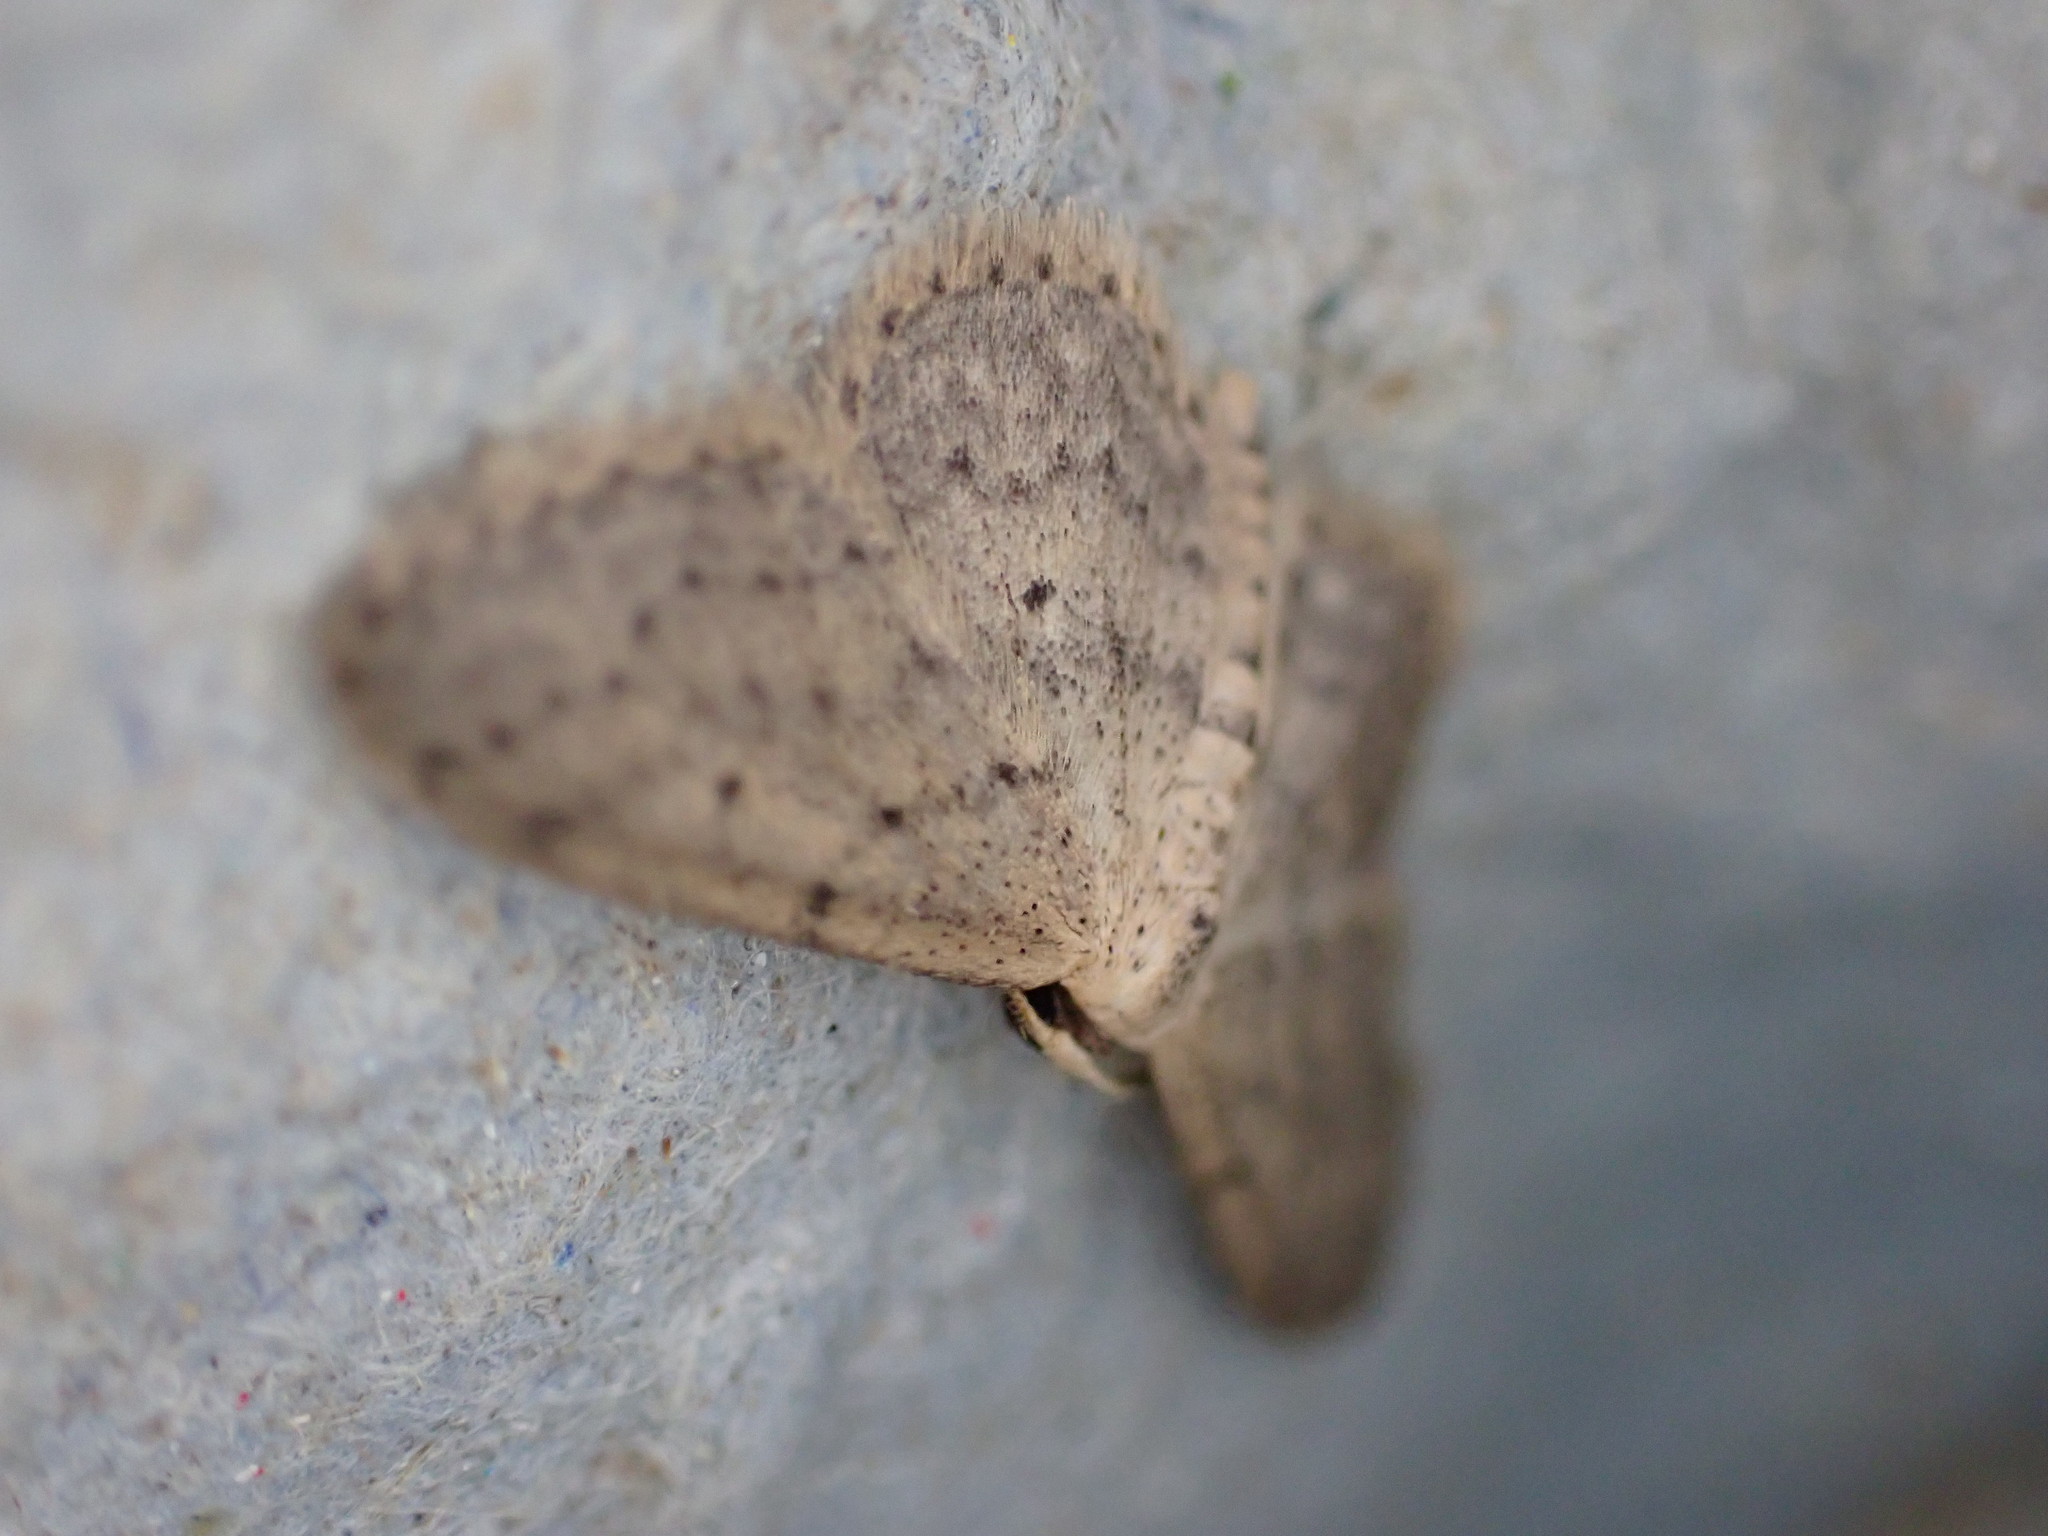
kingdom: Animalia
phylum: Arthropoda
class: Insecta
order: Lepidoptera
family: Geometridae
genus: Idaea
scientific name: Idaea seriata
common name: Small dusty wave
